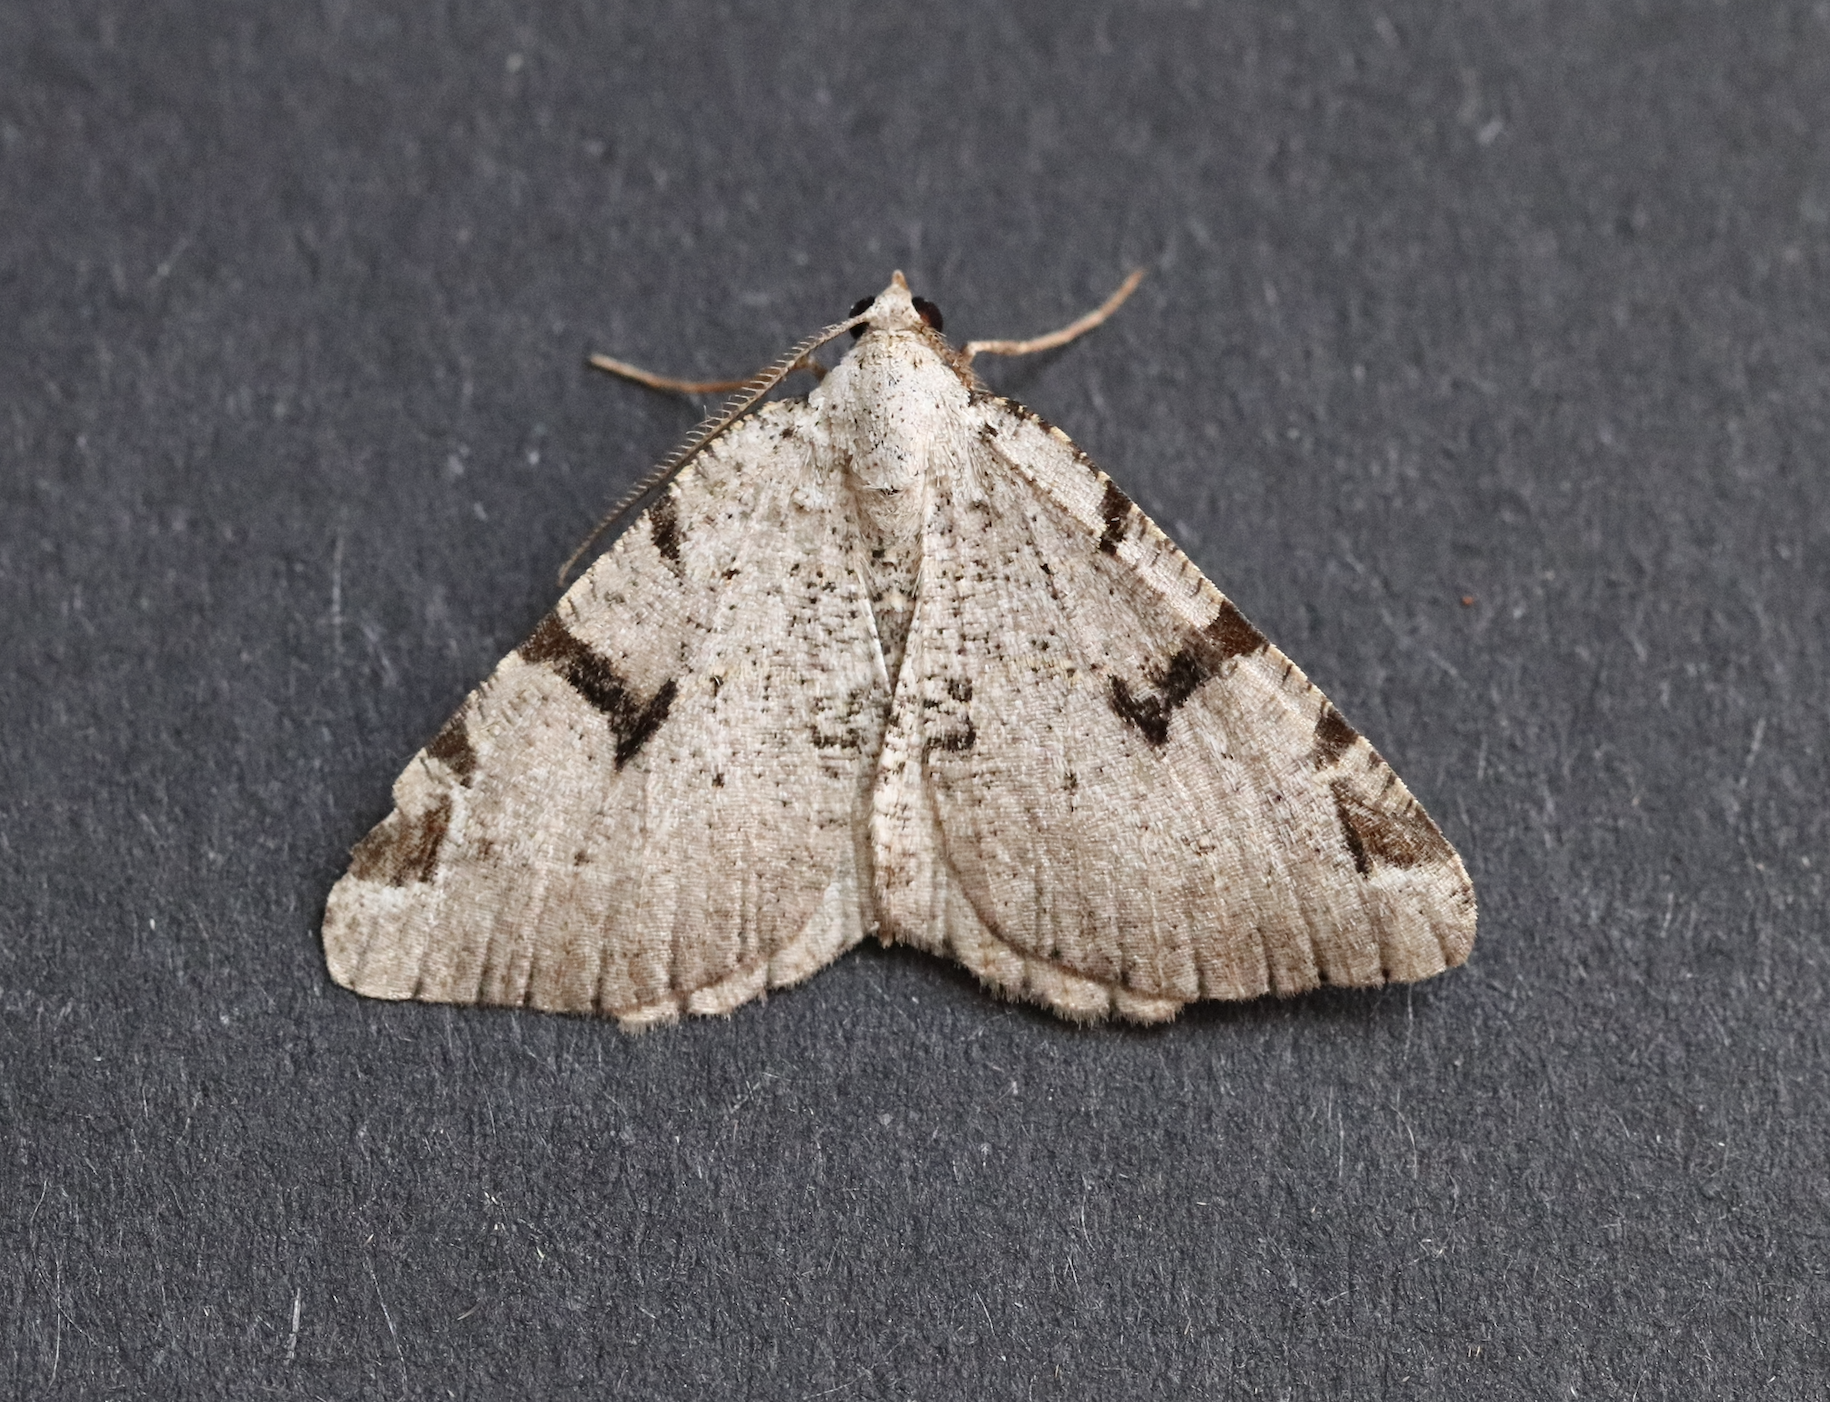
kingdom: Animalia
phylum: Arthropoda
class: Insecta
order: Lepidoptera
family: Geometridae
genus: Macaria
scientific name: Macaria wauaria
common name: V-moth
